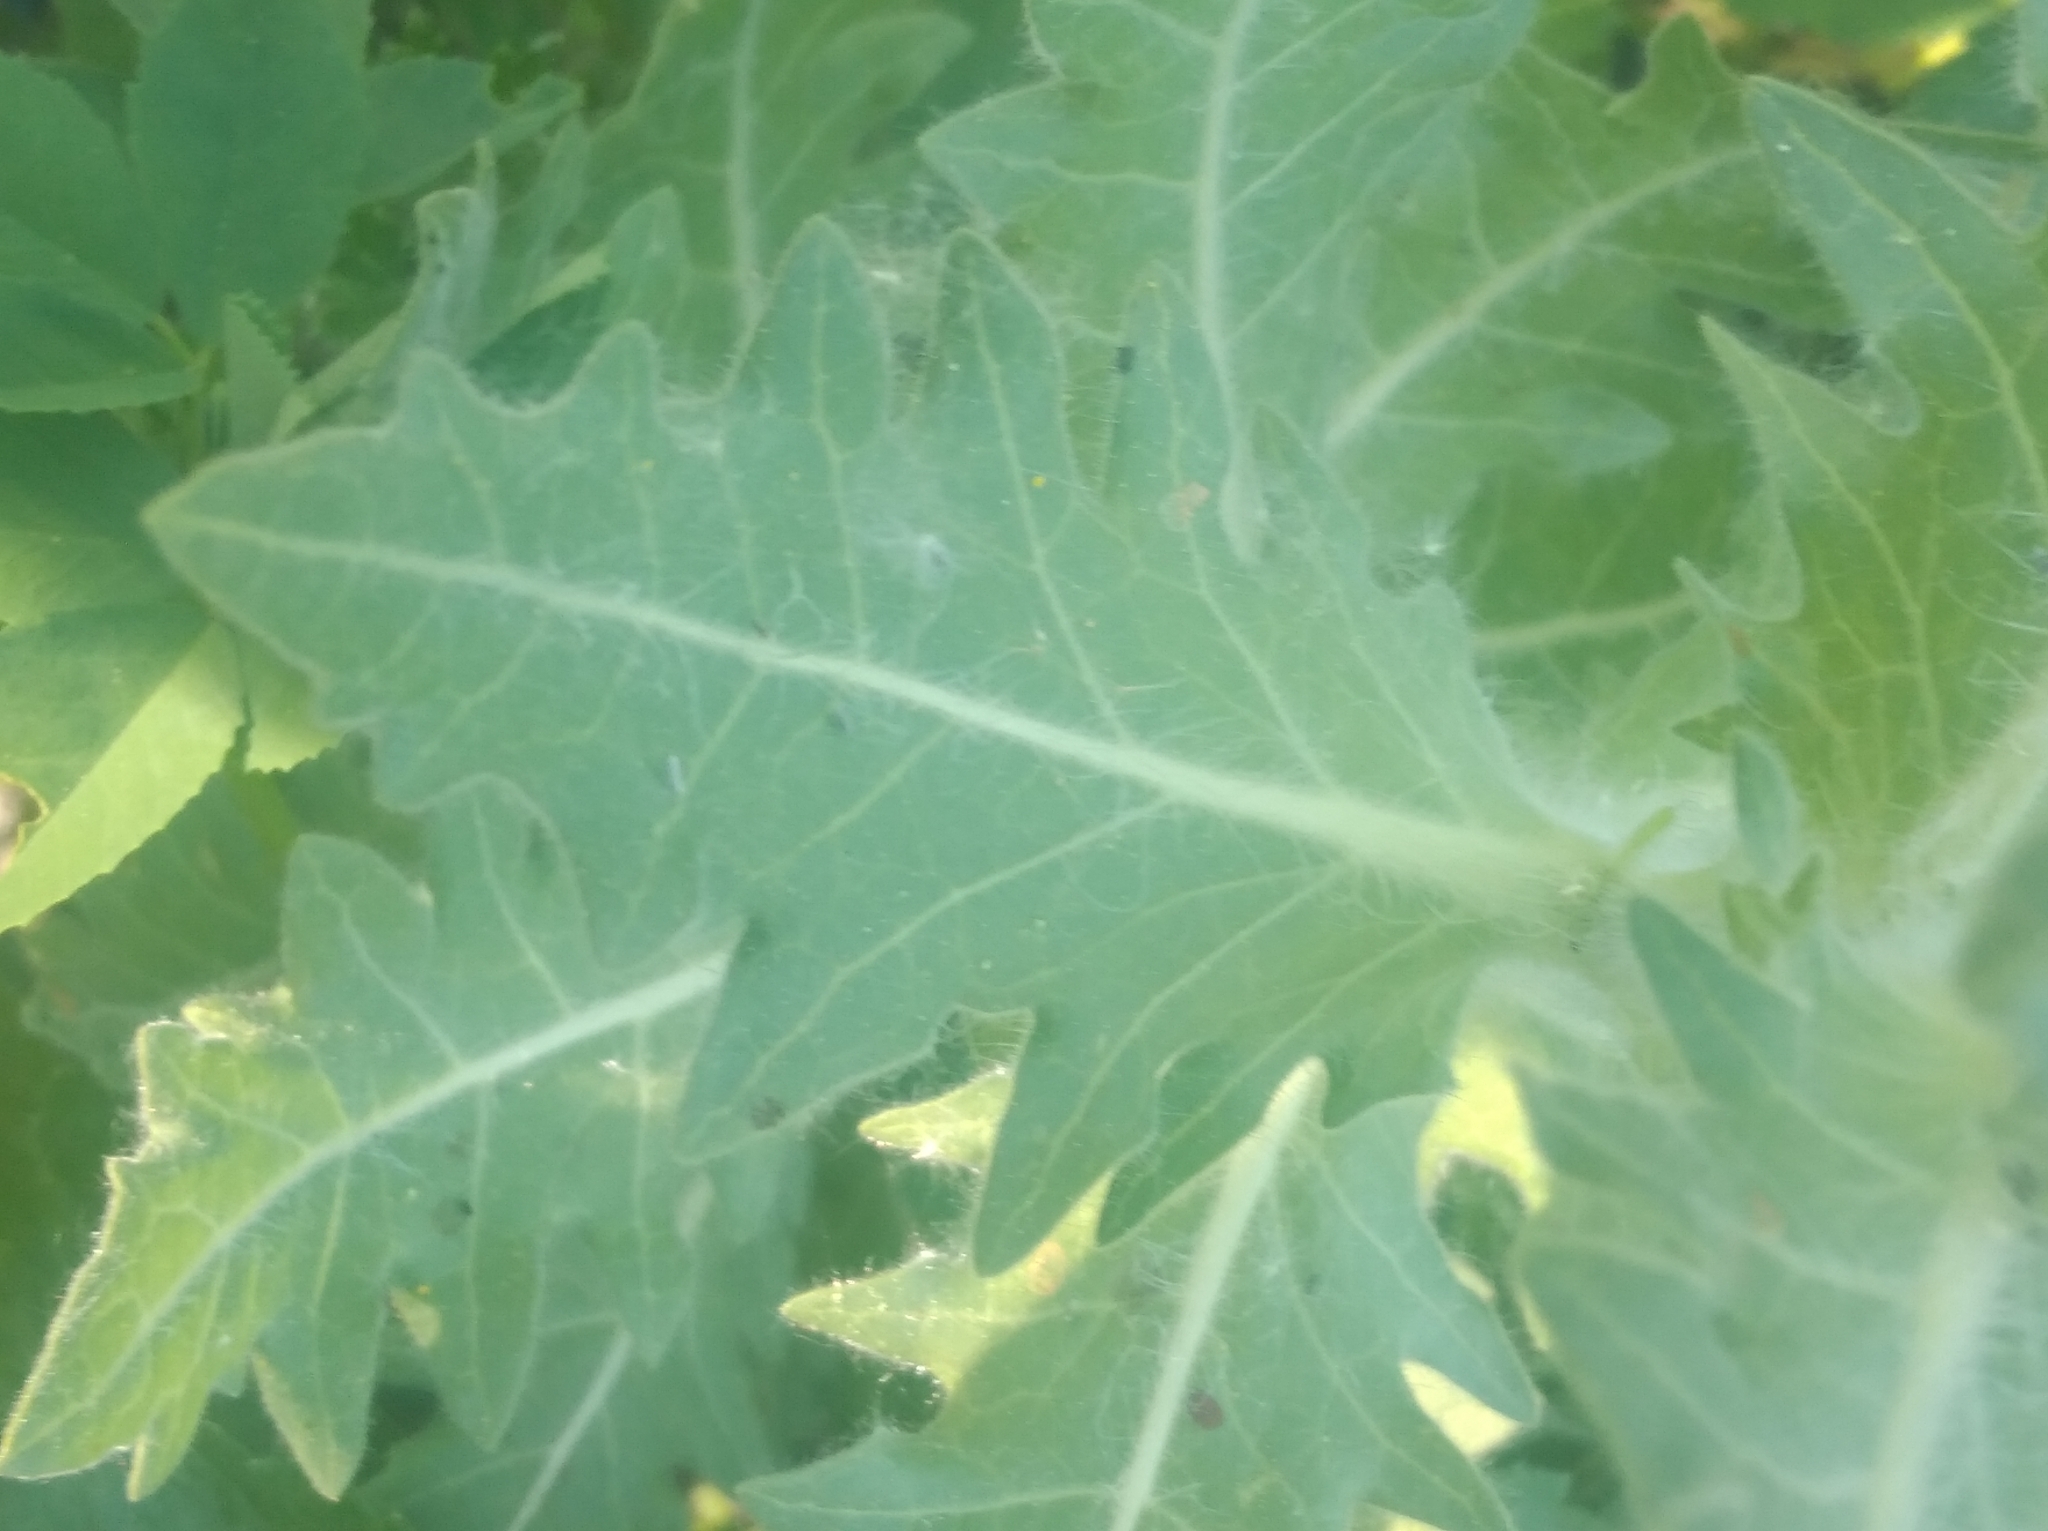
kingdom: Plantae
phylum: Tracheophyta
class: Magnoliopsida
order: Solanales
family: Solanaceae
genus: Hyoscyamus
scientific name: Hyoscyamus niger
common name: Henbane
